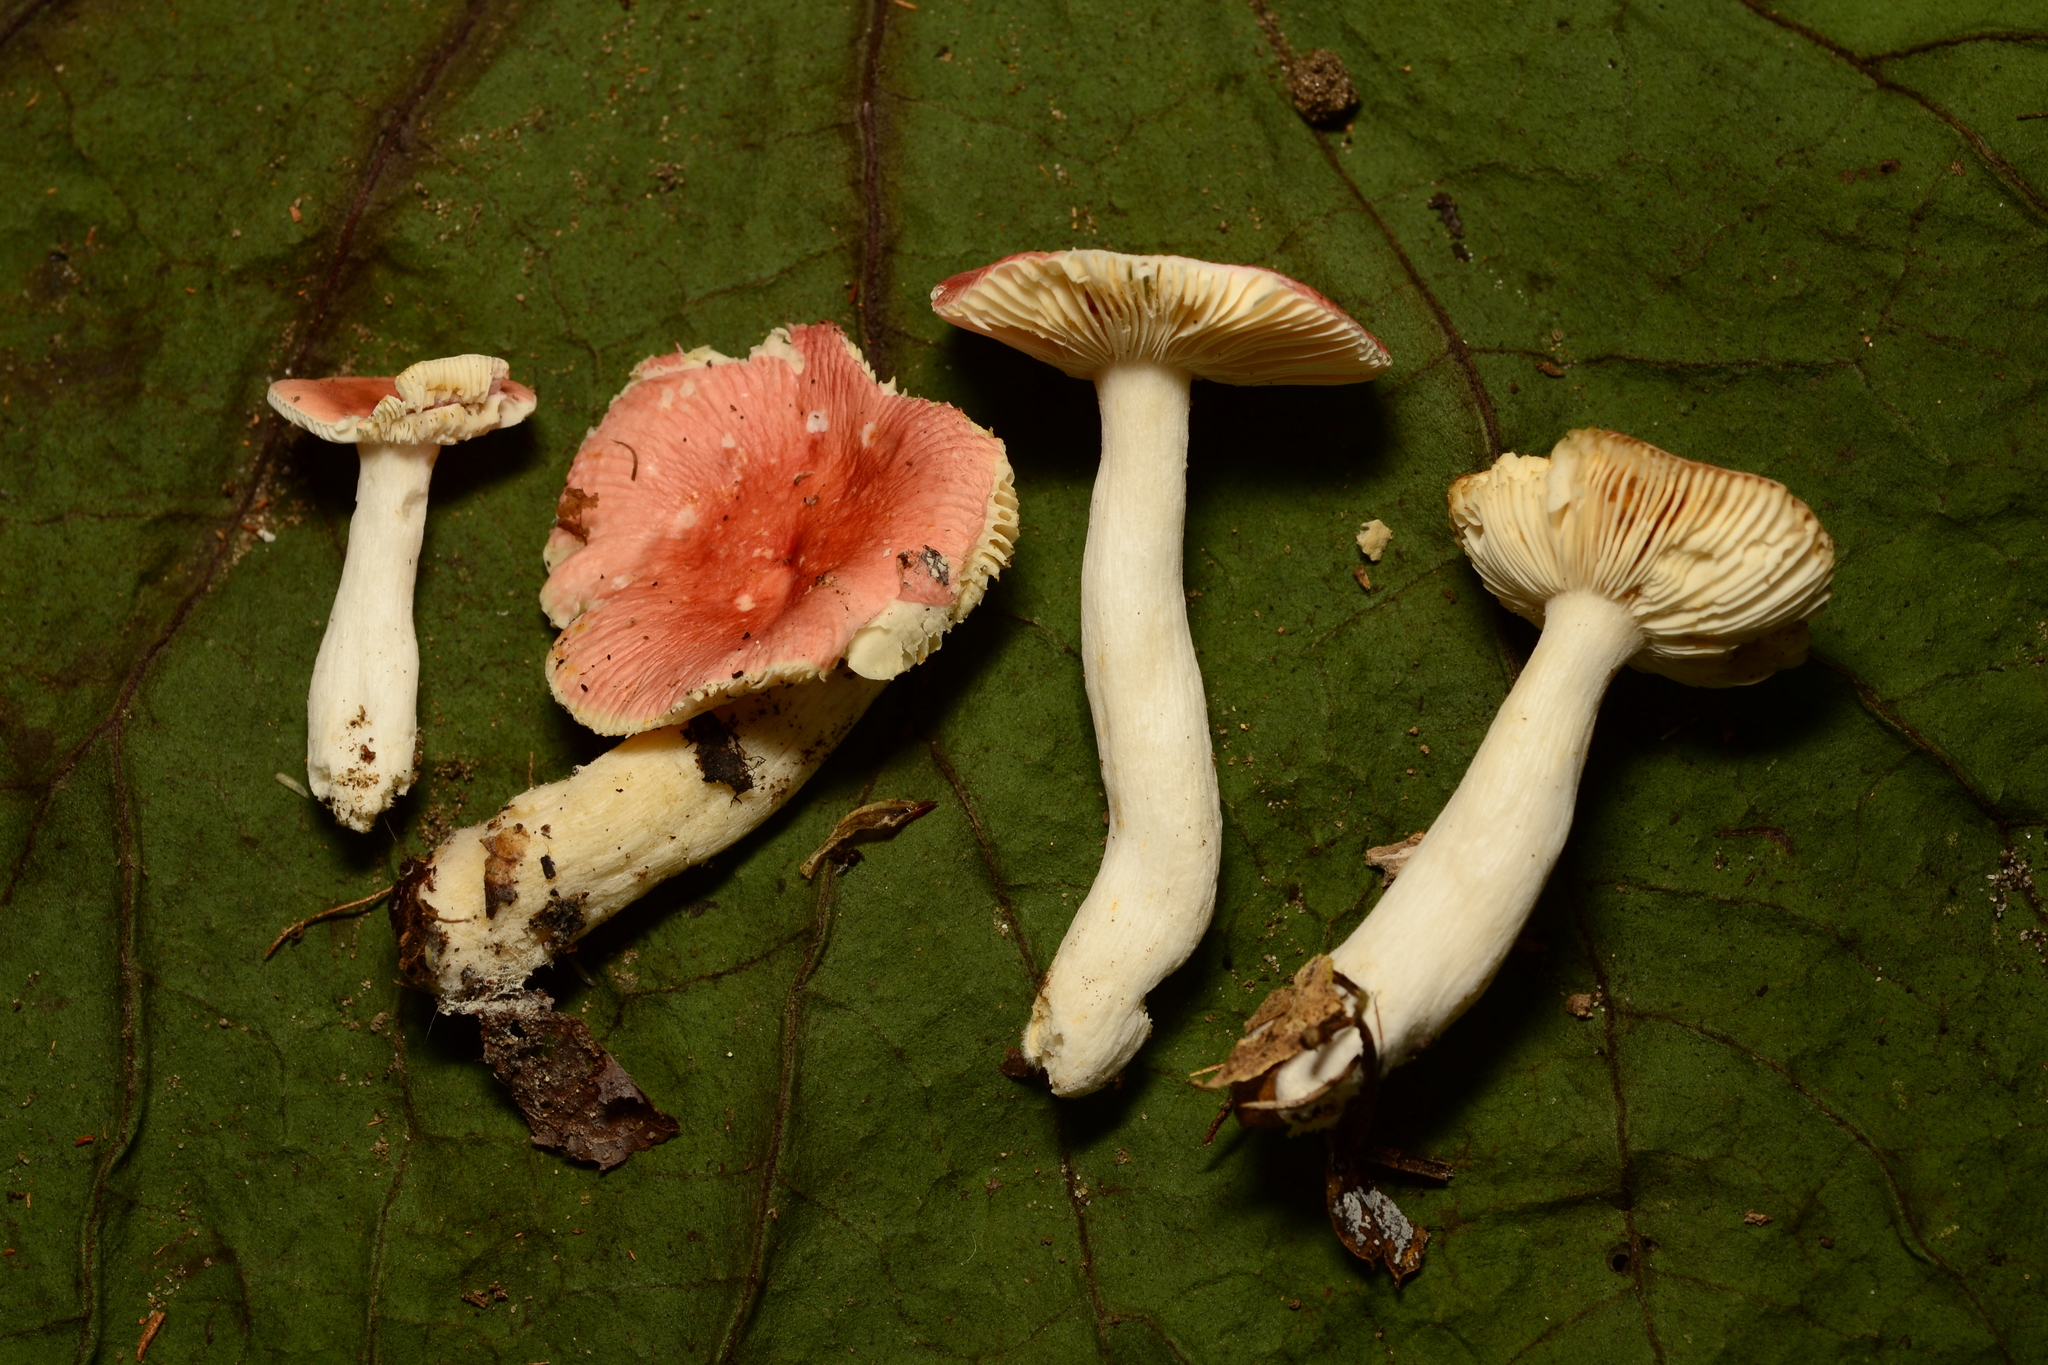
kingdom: Fungi
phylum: Basidiomycota
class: Agaricomycetes
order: Russulales
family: Russulaceae
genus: Russula
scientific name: Russula
